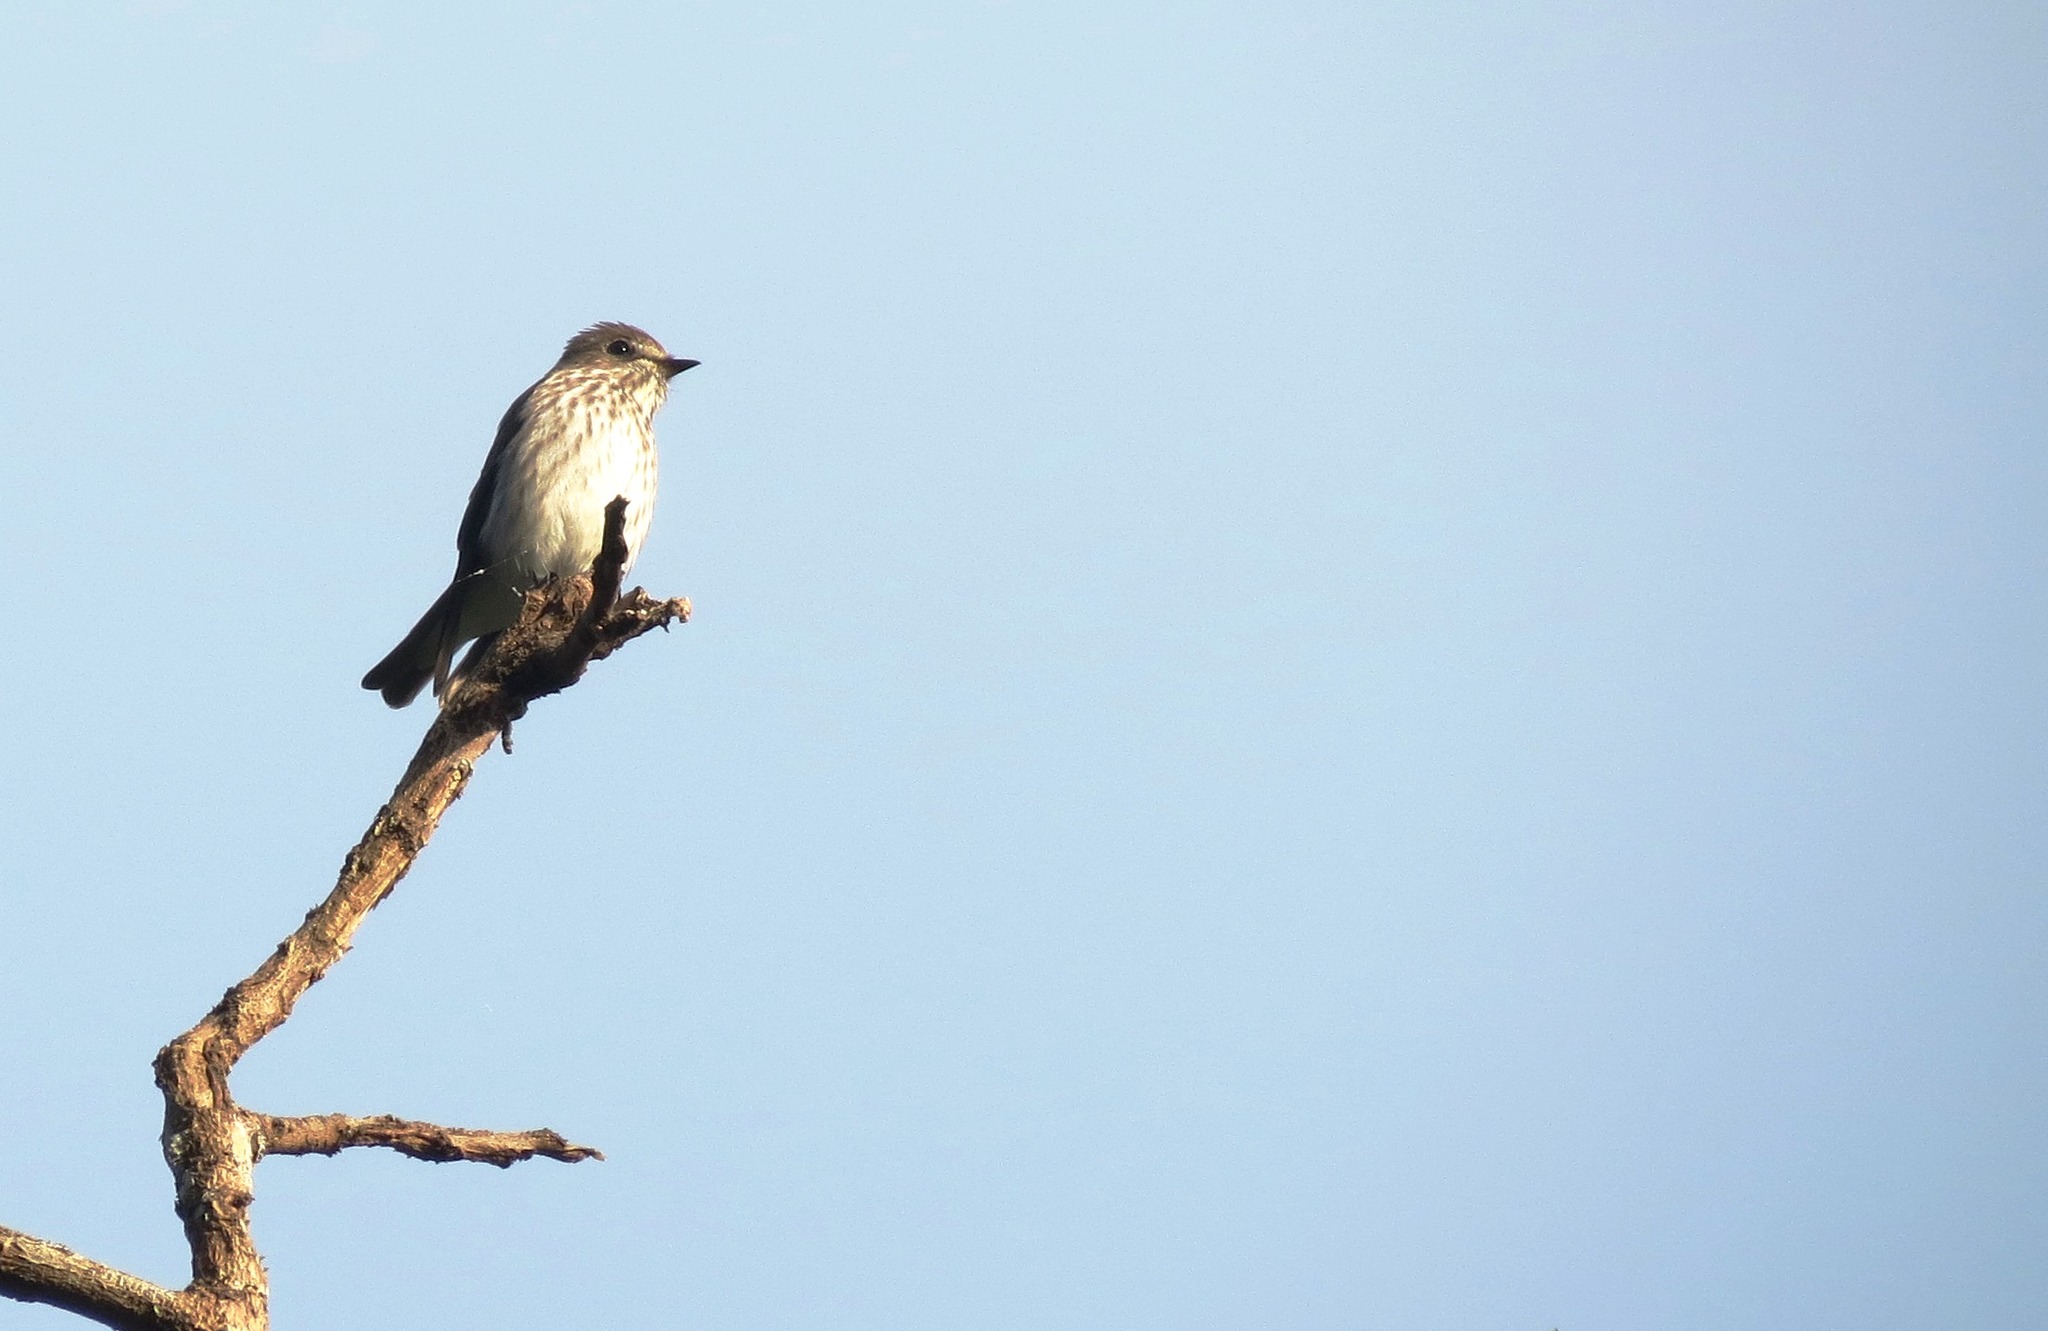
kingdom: Animalia
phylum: Chordata
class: Aves
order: Passeriformes
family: Muscicapidae
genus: Muscicapa
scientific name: Muscicapa griseisticta
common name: Gray-streaked flycatcher
